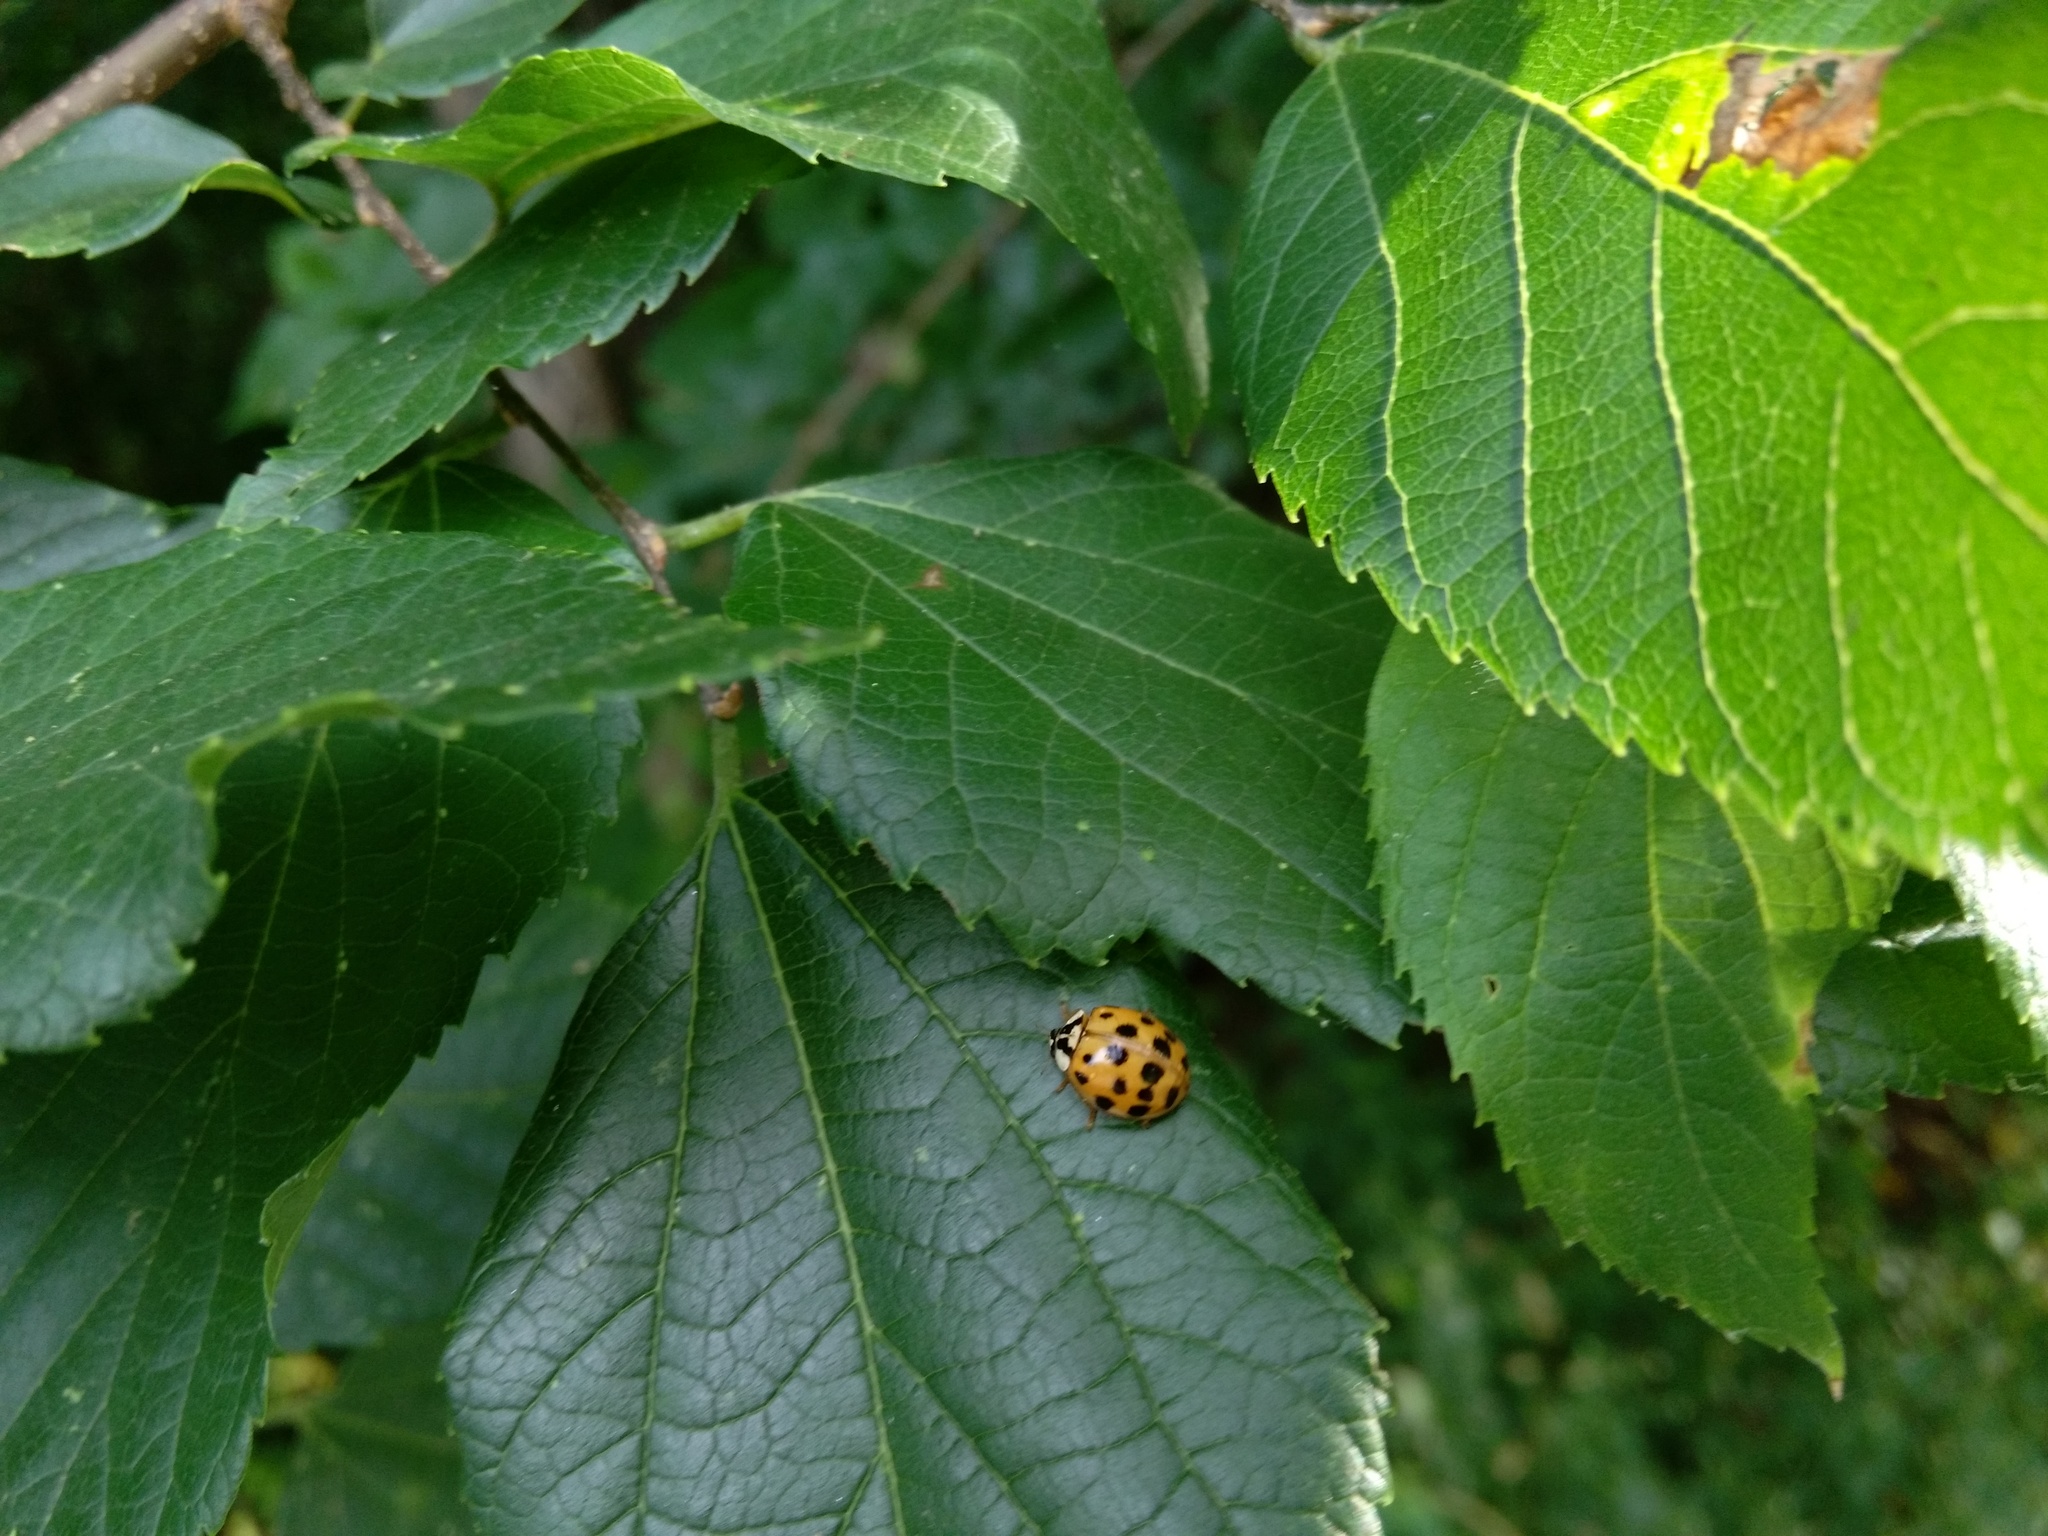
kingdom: Animalia
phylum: Arthropoda
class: Insecta
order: Coleoptera
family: Coccinellidae
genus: Harmonia
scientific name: Harmonia axyridis
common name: Harlequin ladybird
